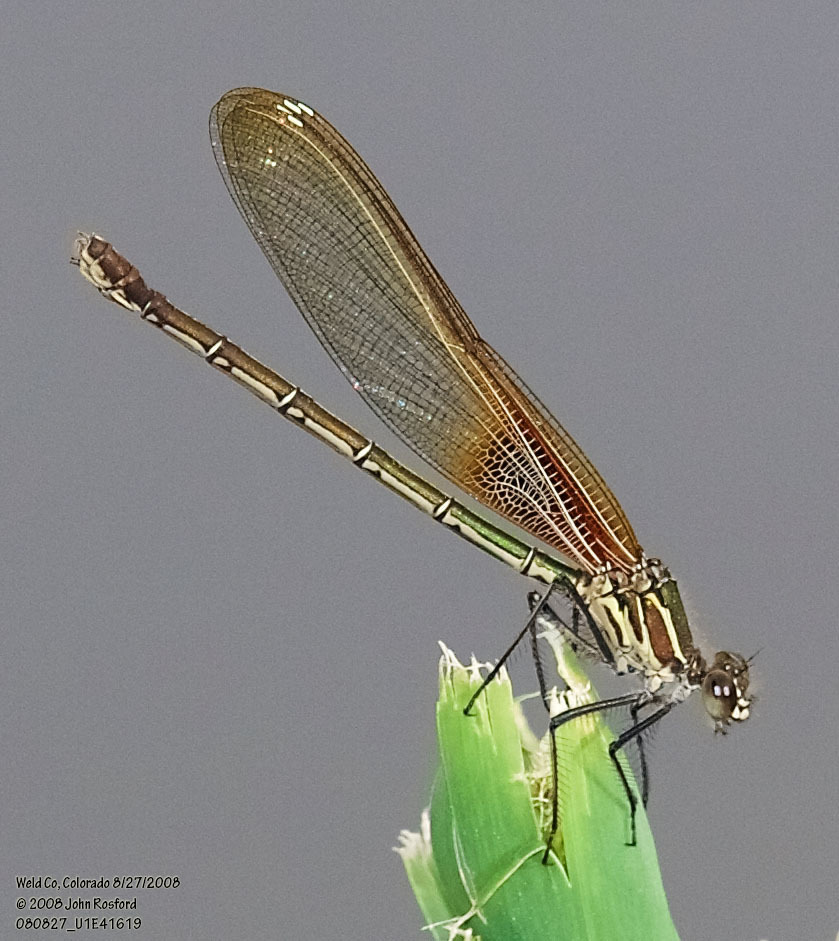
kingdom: Animalia
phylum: Arthropoda
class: Insecta
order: Odonata
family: Calopterygidae
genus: Hetaerina
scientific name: Hetaerina americana
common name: American rubyspot
